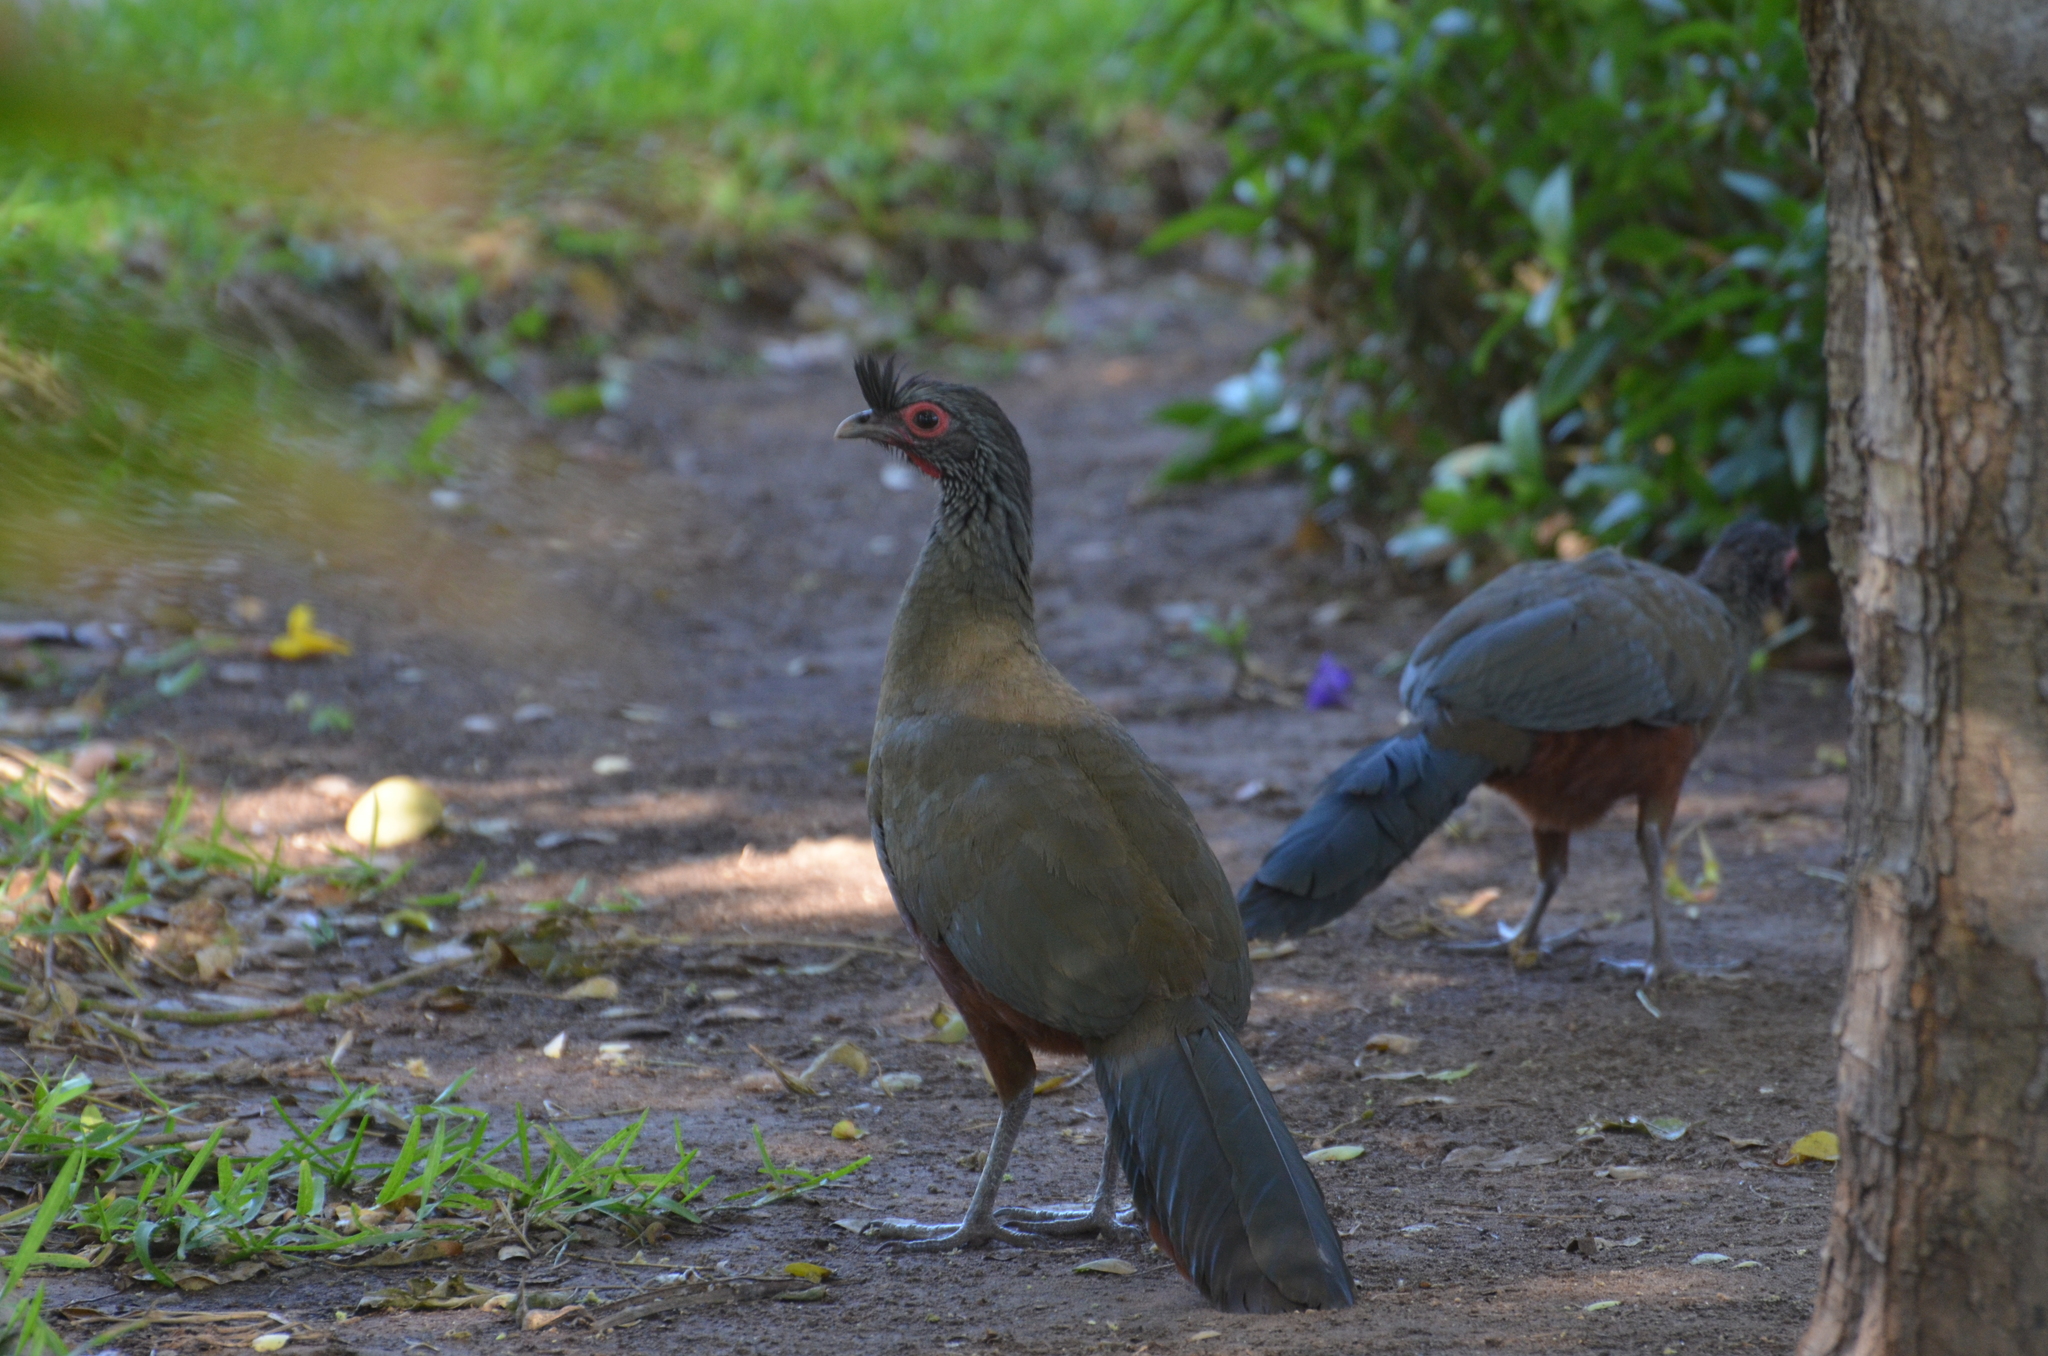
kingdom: Animalia
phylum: Chordata
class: Aves
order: Galliformes
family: Cracidae
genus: Ortalis
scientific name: Ortalis wagleri
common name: Rufous-bellied chachalaca
